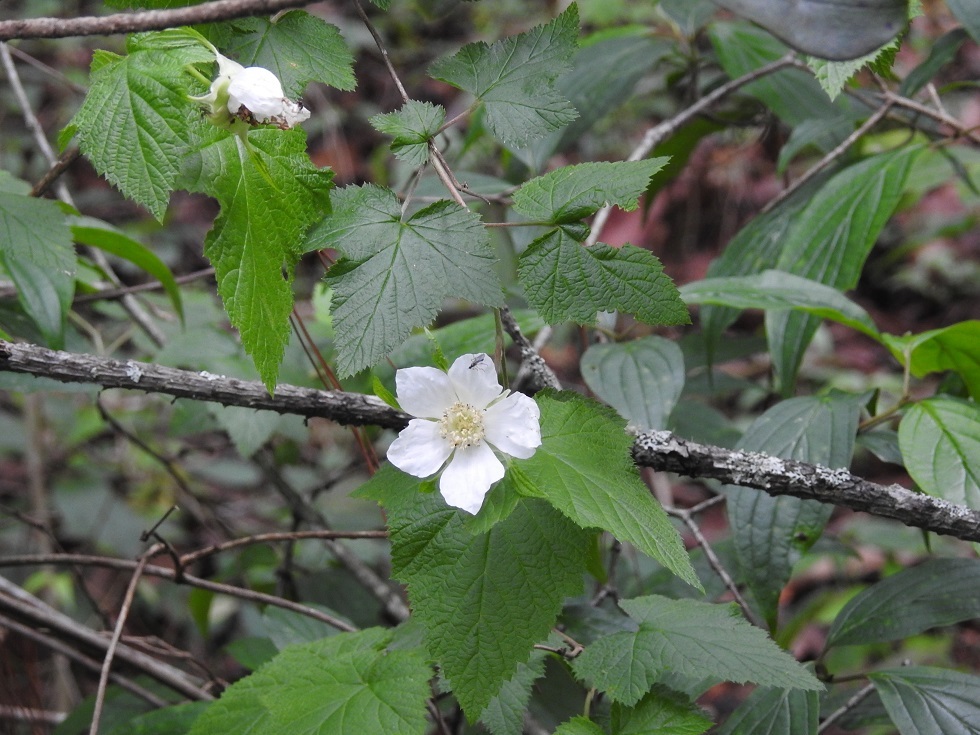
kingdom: Plantae
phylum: Tracheophyta
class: Magnoliopsida
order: Rosales
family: Rosaceae
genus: Rubus
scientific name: Rubus trilobus
